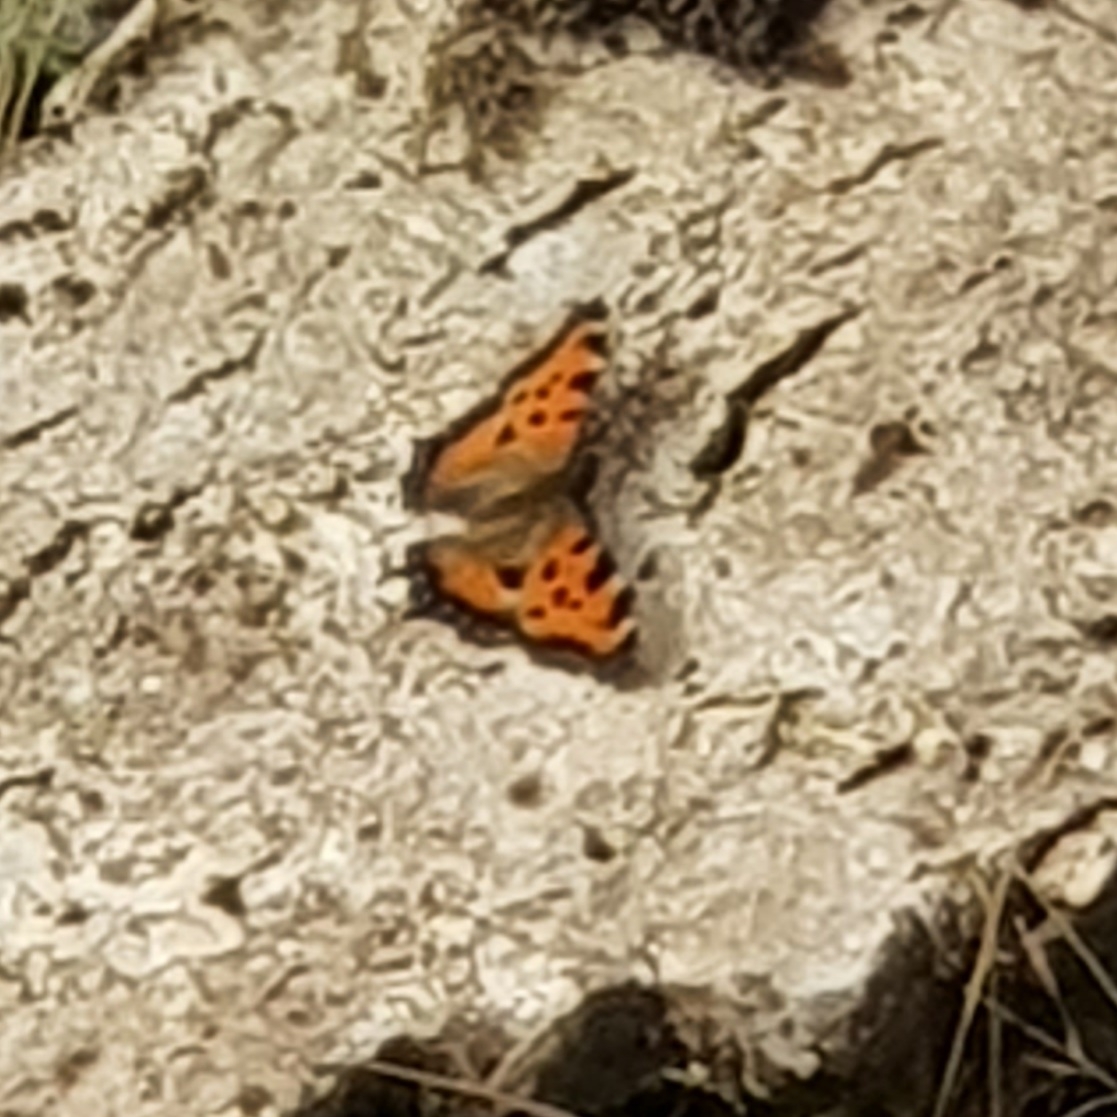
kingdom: Animalia
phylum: Arthropoda
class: Insecta
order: Lepidoptera
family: Nymphalidae
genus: Nymphalis
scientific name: Nymphalis polychloros
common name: Large tortoiseshell
